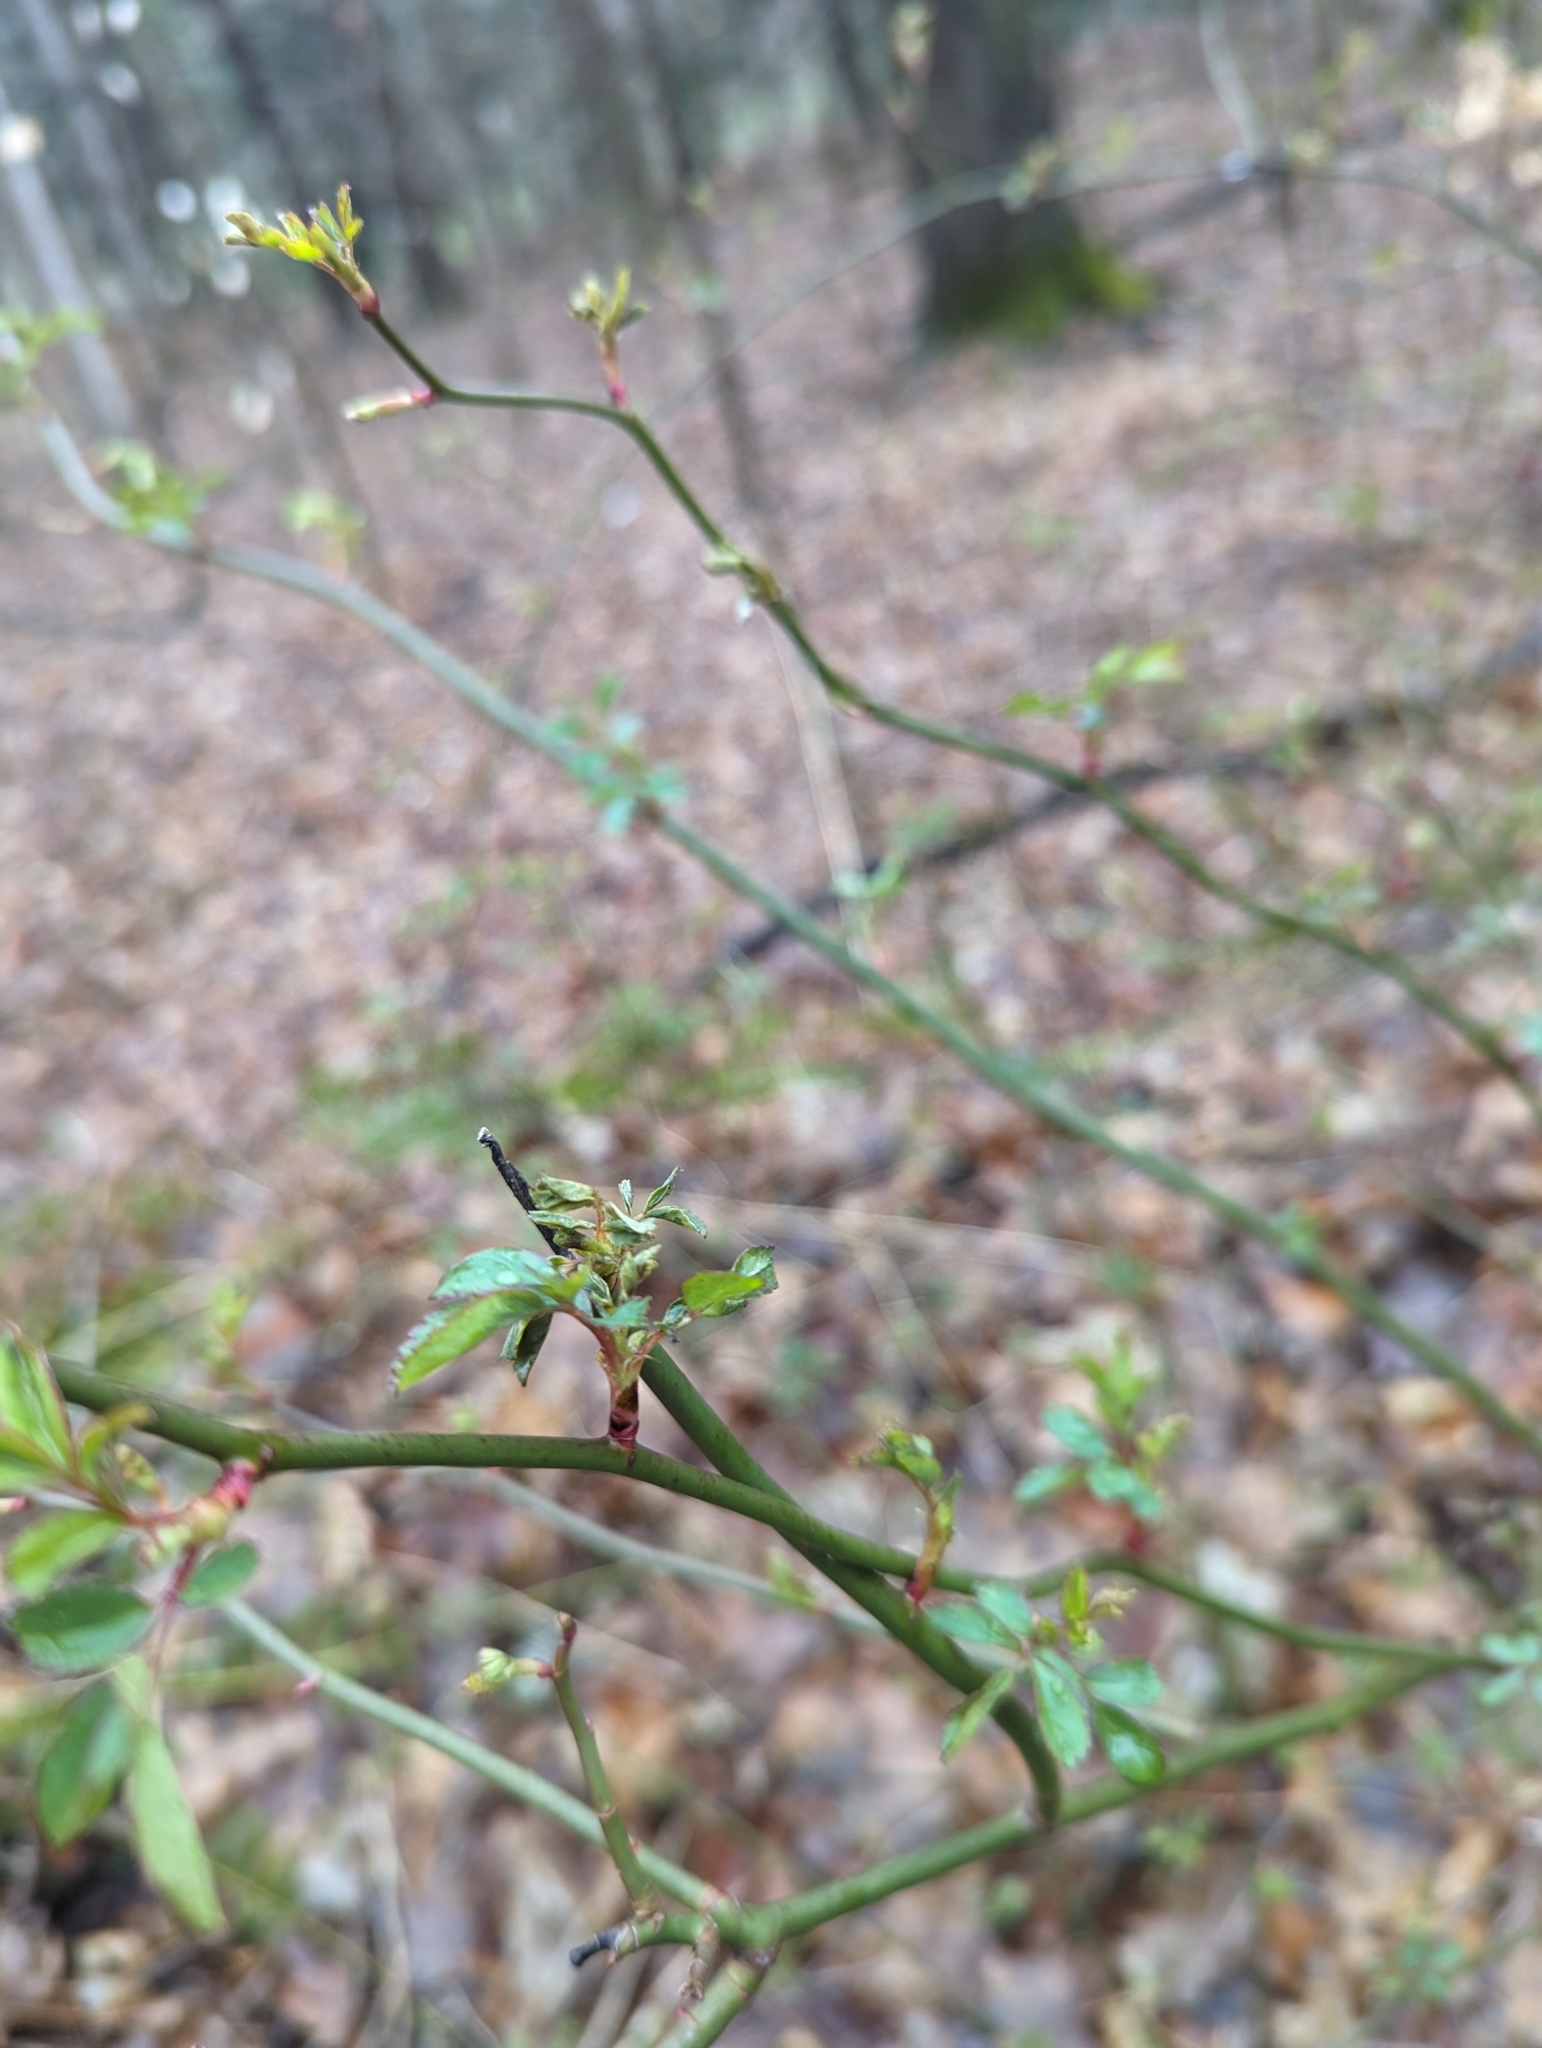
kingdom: Plantae
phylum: Tracheophyta
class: Magnoliopsida
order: Rosales
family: Rosaceae
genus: Rosa
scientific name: Rosa multiflora
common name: Multiflora rose
